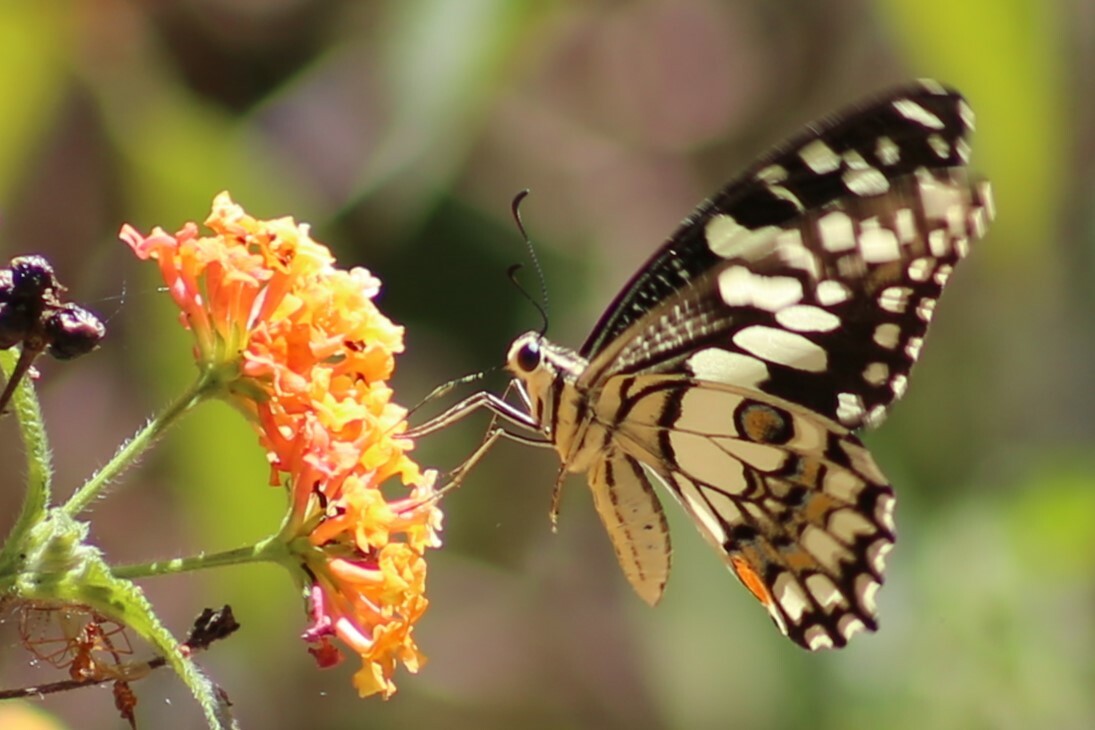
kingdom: Animalia
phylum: Arthropoda
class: Insecta
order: Lepidoptera
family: Papilionidae
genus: Papilio
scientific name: Papilio demoleus
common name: Lime butterfly
